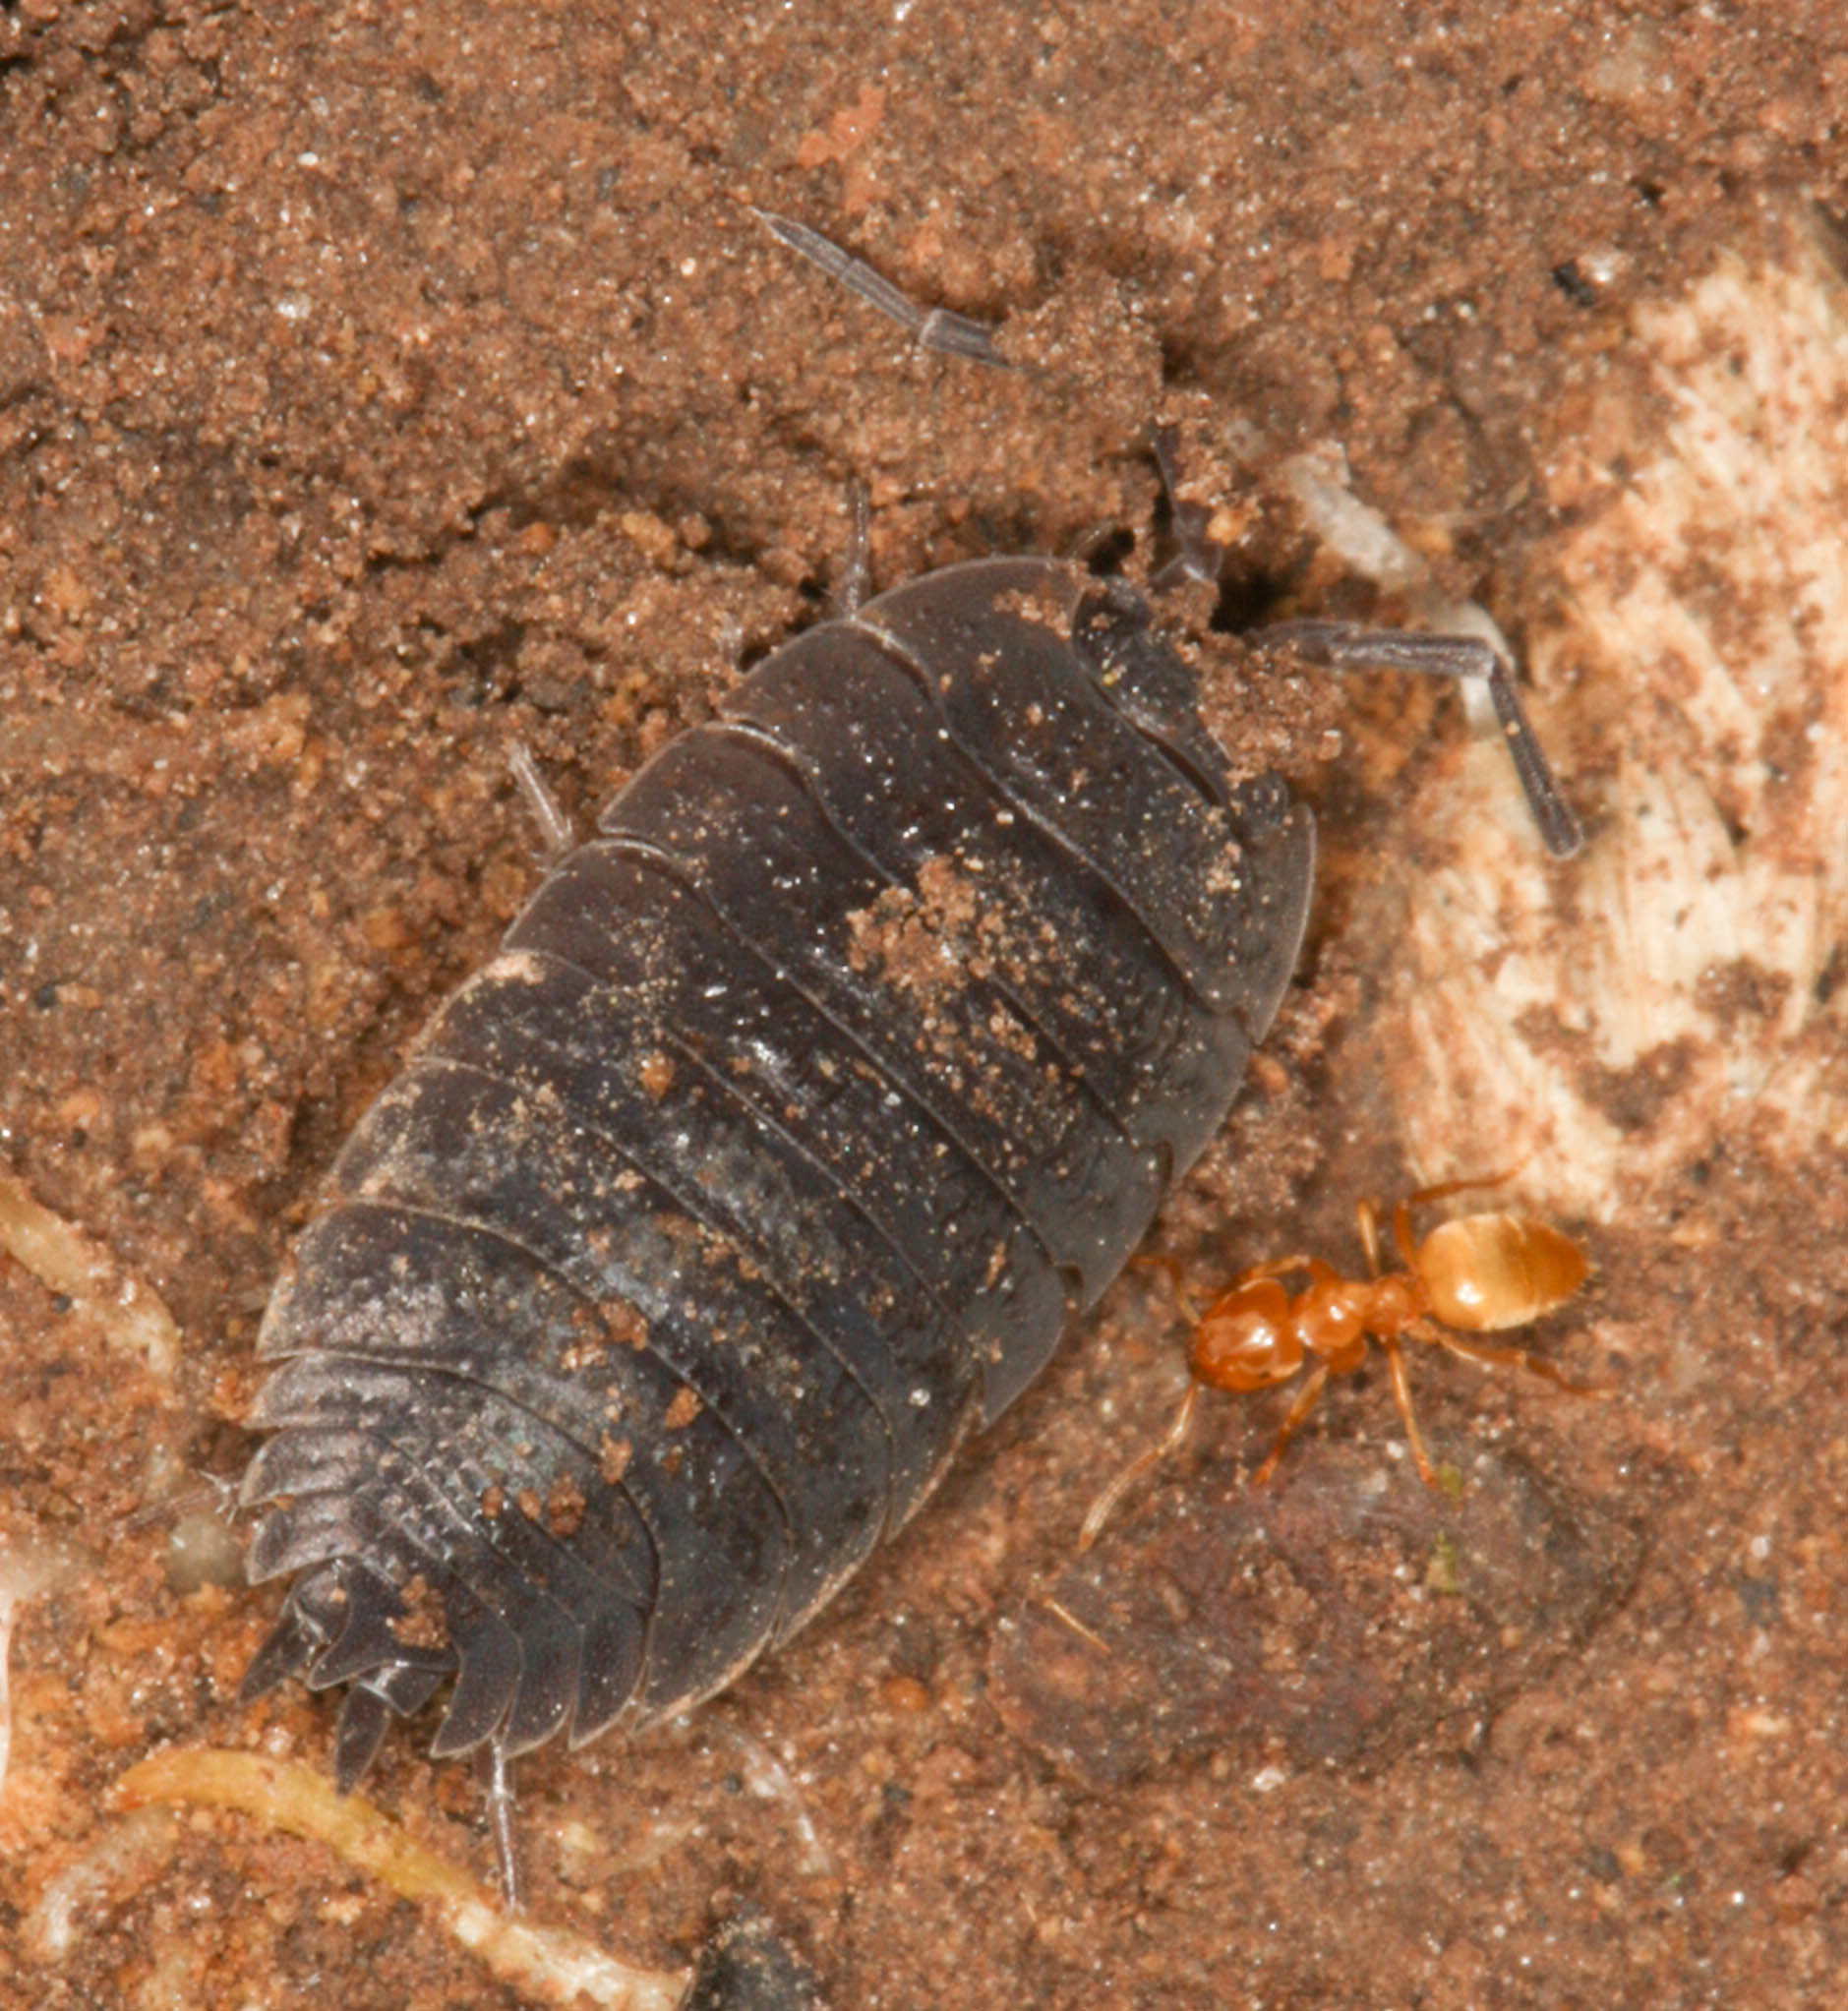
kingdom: Animalia
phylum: Arthropoda
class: Malacostraca
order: Isopoda
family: Porcellionidae
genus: Porcellio
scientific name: Porcellio scaber
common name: Common rough woodlouse
